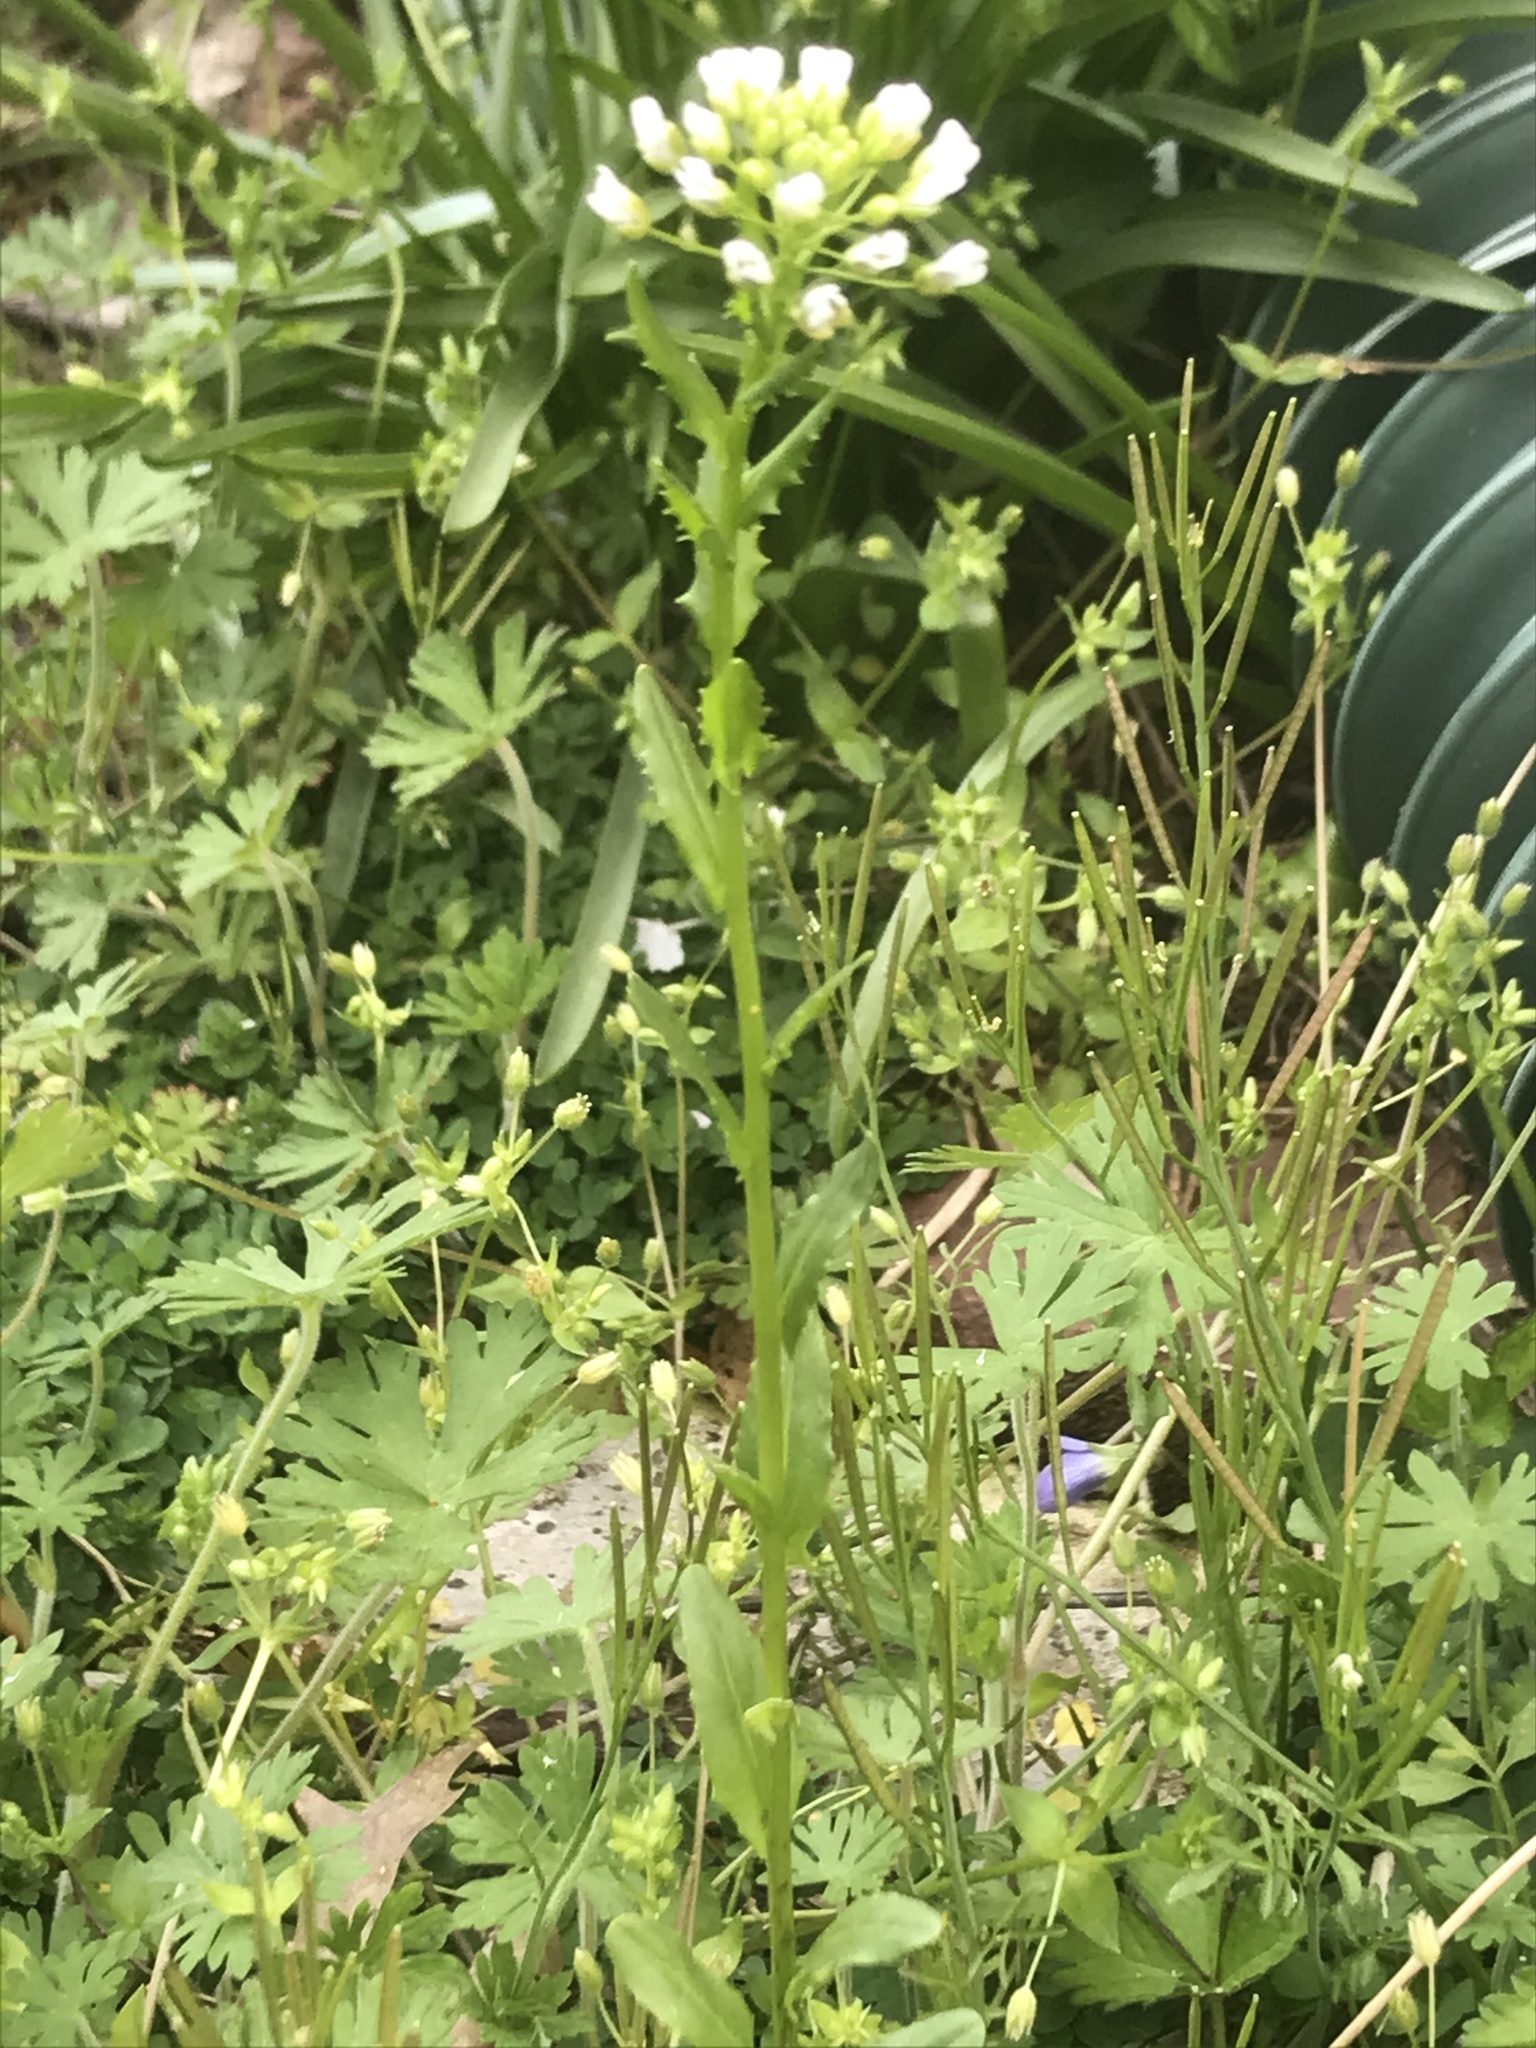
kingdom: Plantae
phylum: Tracheophyta
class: Magnoliopsida
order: Brassicales
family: Brassicaceae
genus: Thlaspi
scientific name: Thlaspi arvense
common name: Field pennycress
